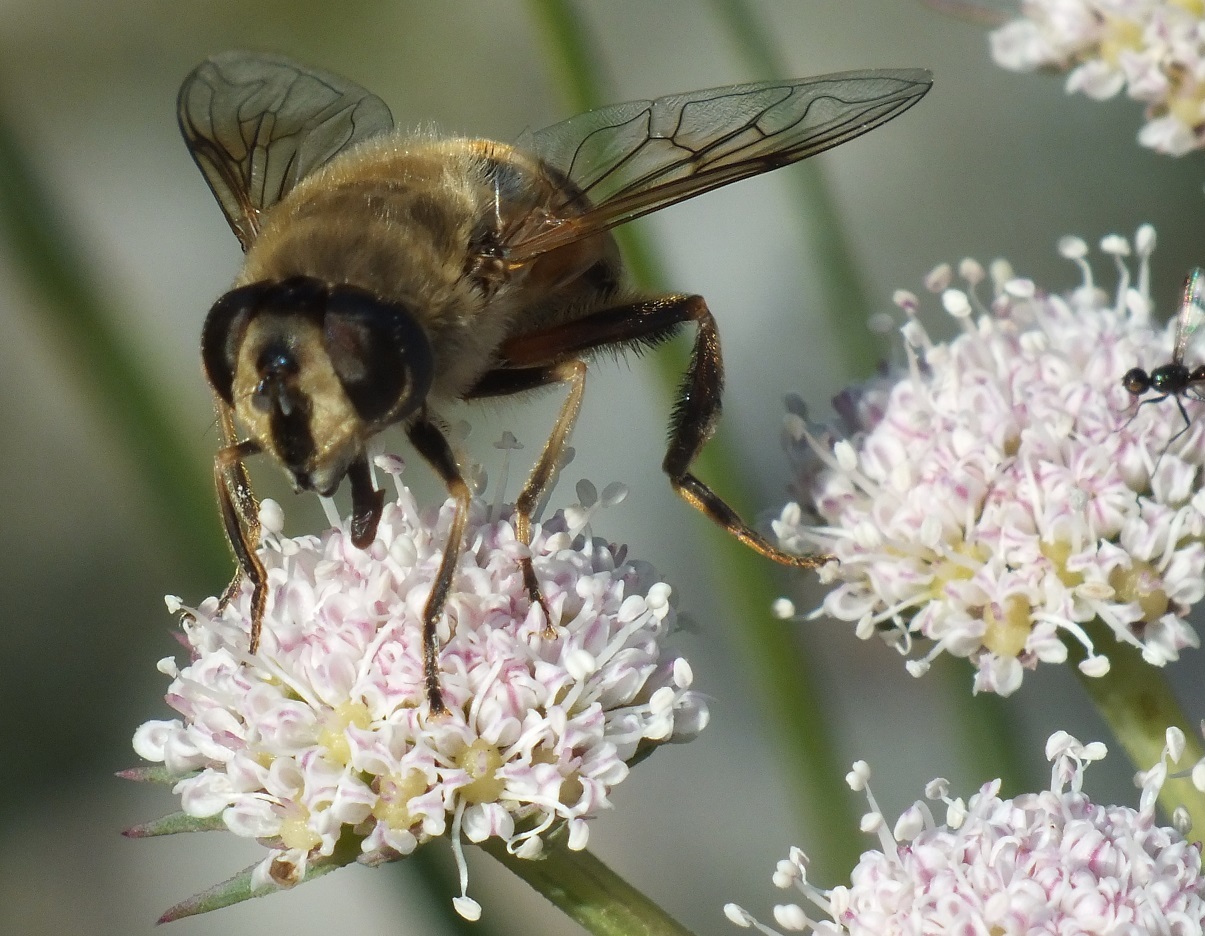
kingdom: Animalia
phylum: Arthropoda
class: Insecta
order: Diptera
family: Syrphidae
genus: Eristalis
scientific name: Eristalis tenax
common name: Drone fly
